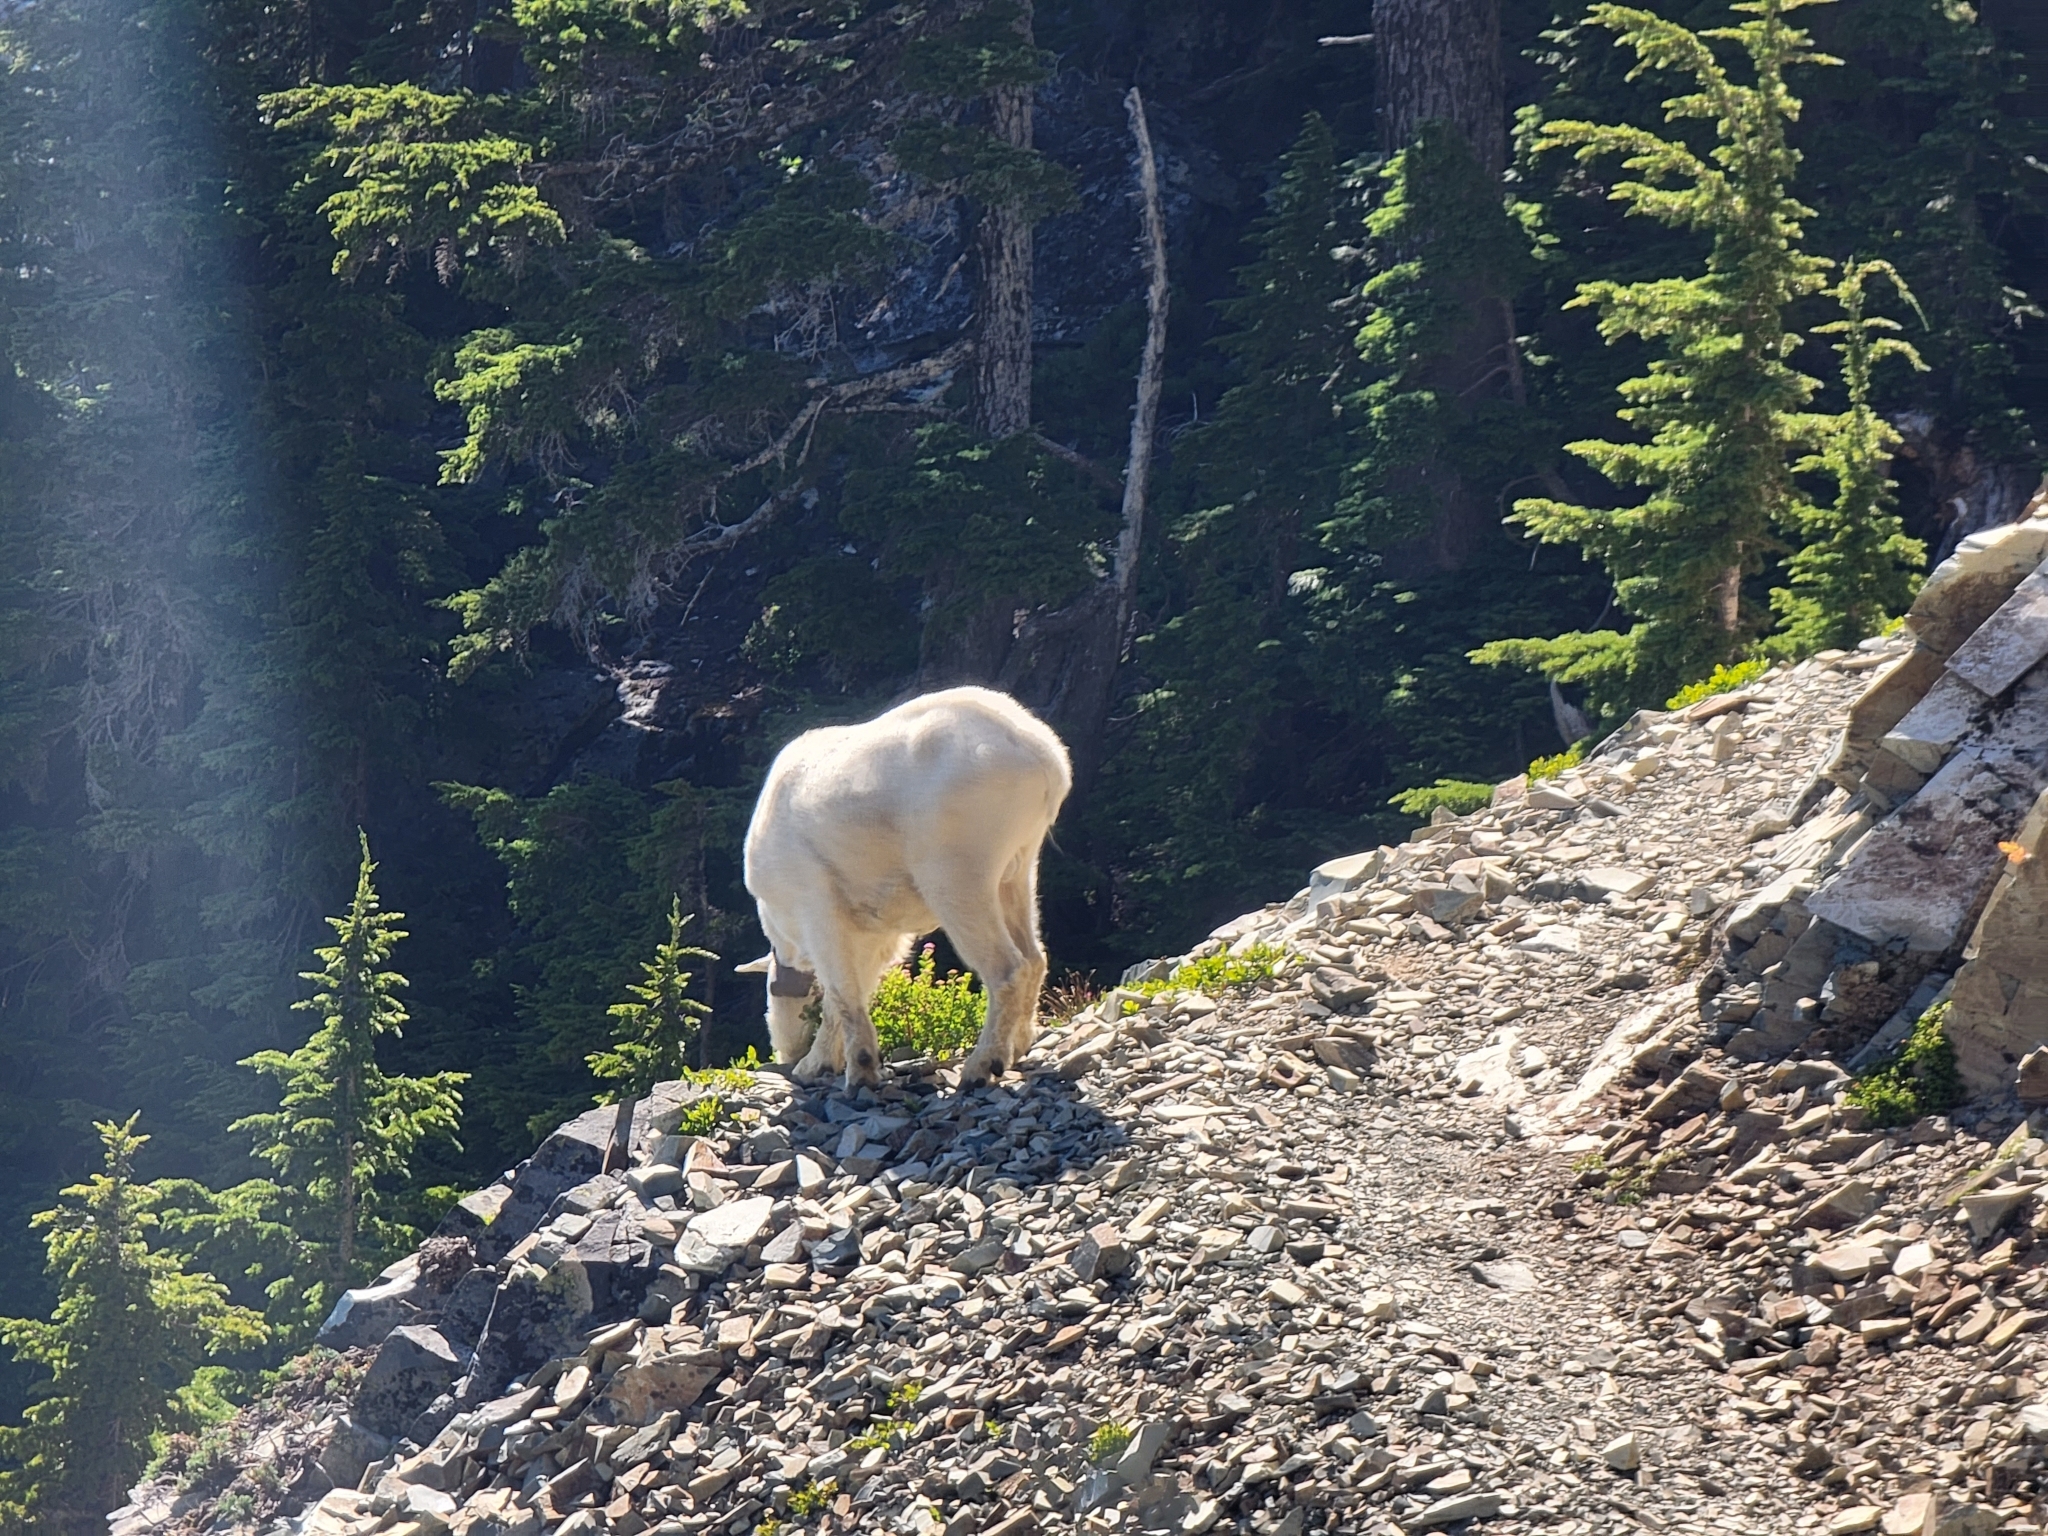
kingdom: Animalia
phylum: Chordata
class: Mammalia
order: Artiodactyla
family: Bovidae
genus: Oreamnos
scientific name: Oreamnos americanus
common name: Mountain goat
